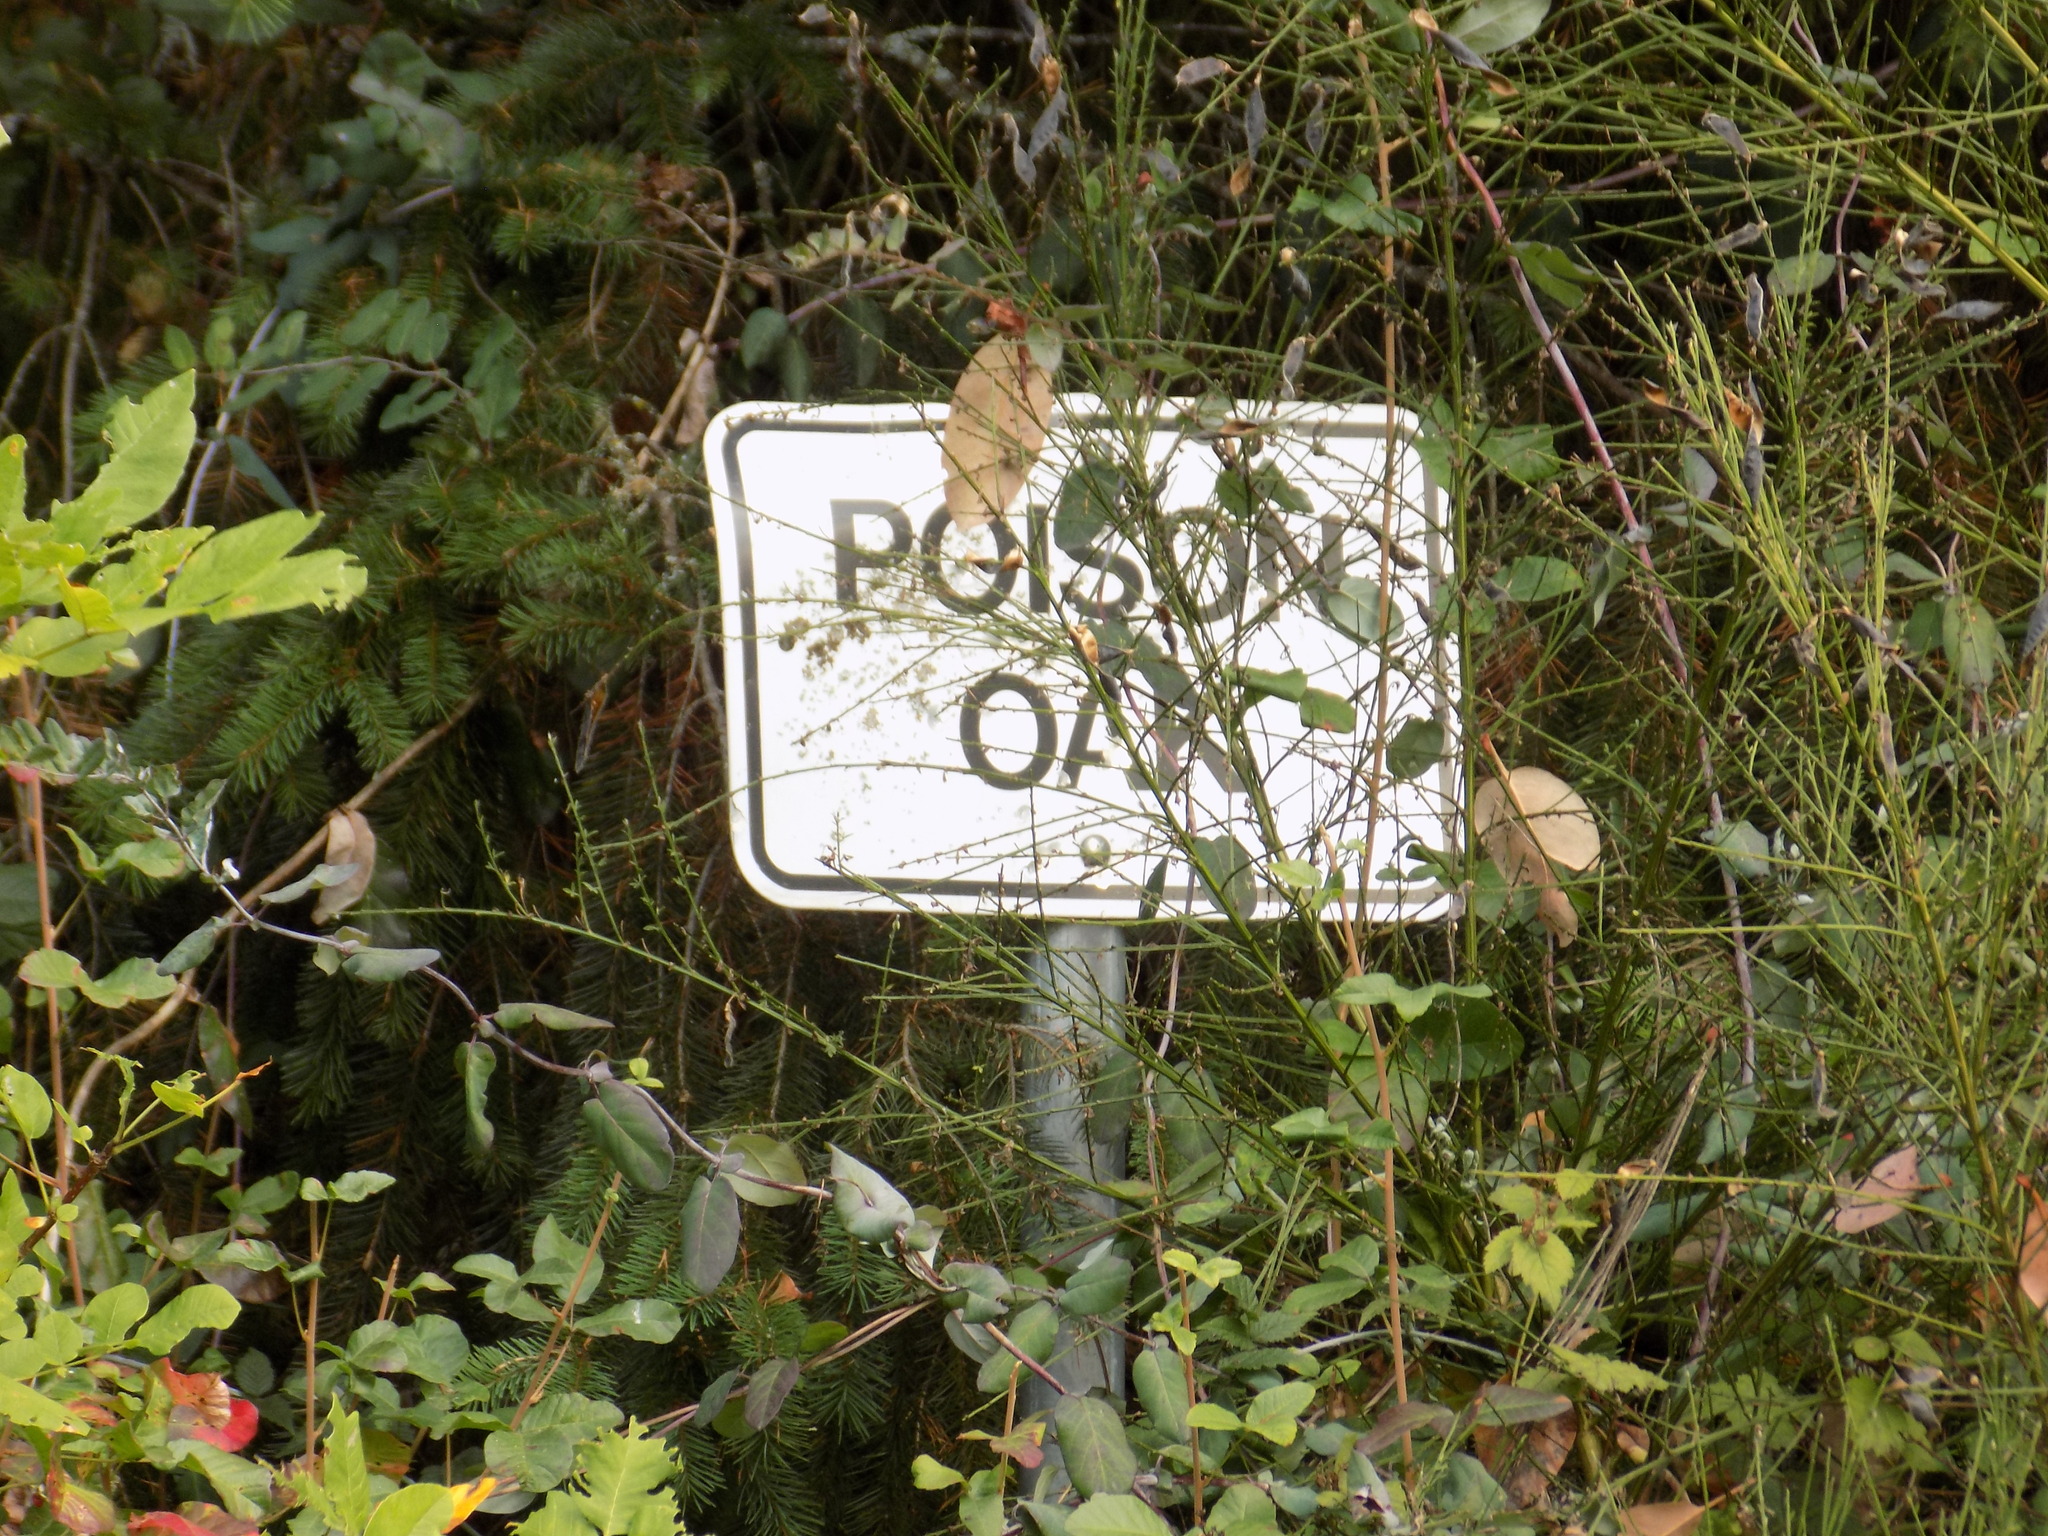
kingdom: Plantae
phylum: Tracheophyta
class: Magnoliopsida
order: Sapindales
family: Anacardiaceae
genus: Toxicodendron
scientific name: Toxicodendron diversilobum
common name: Pacific poison-oak
